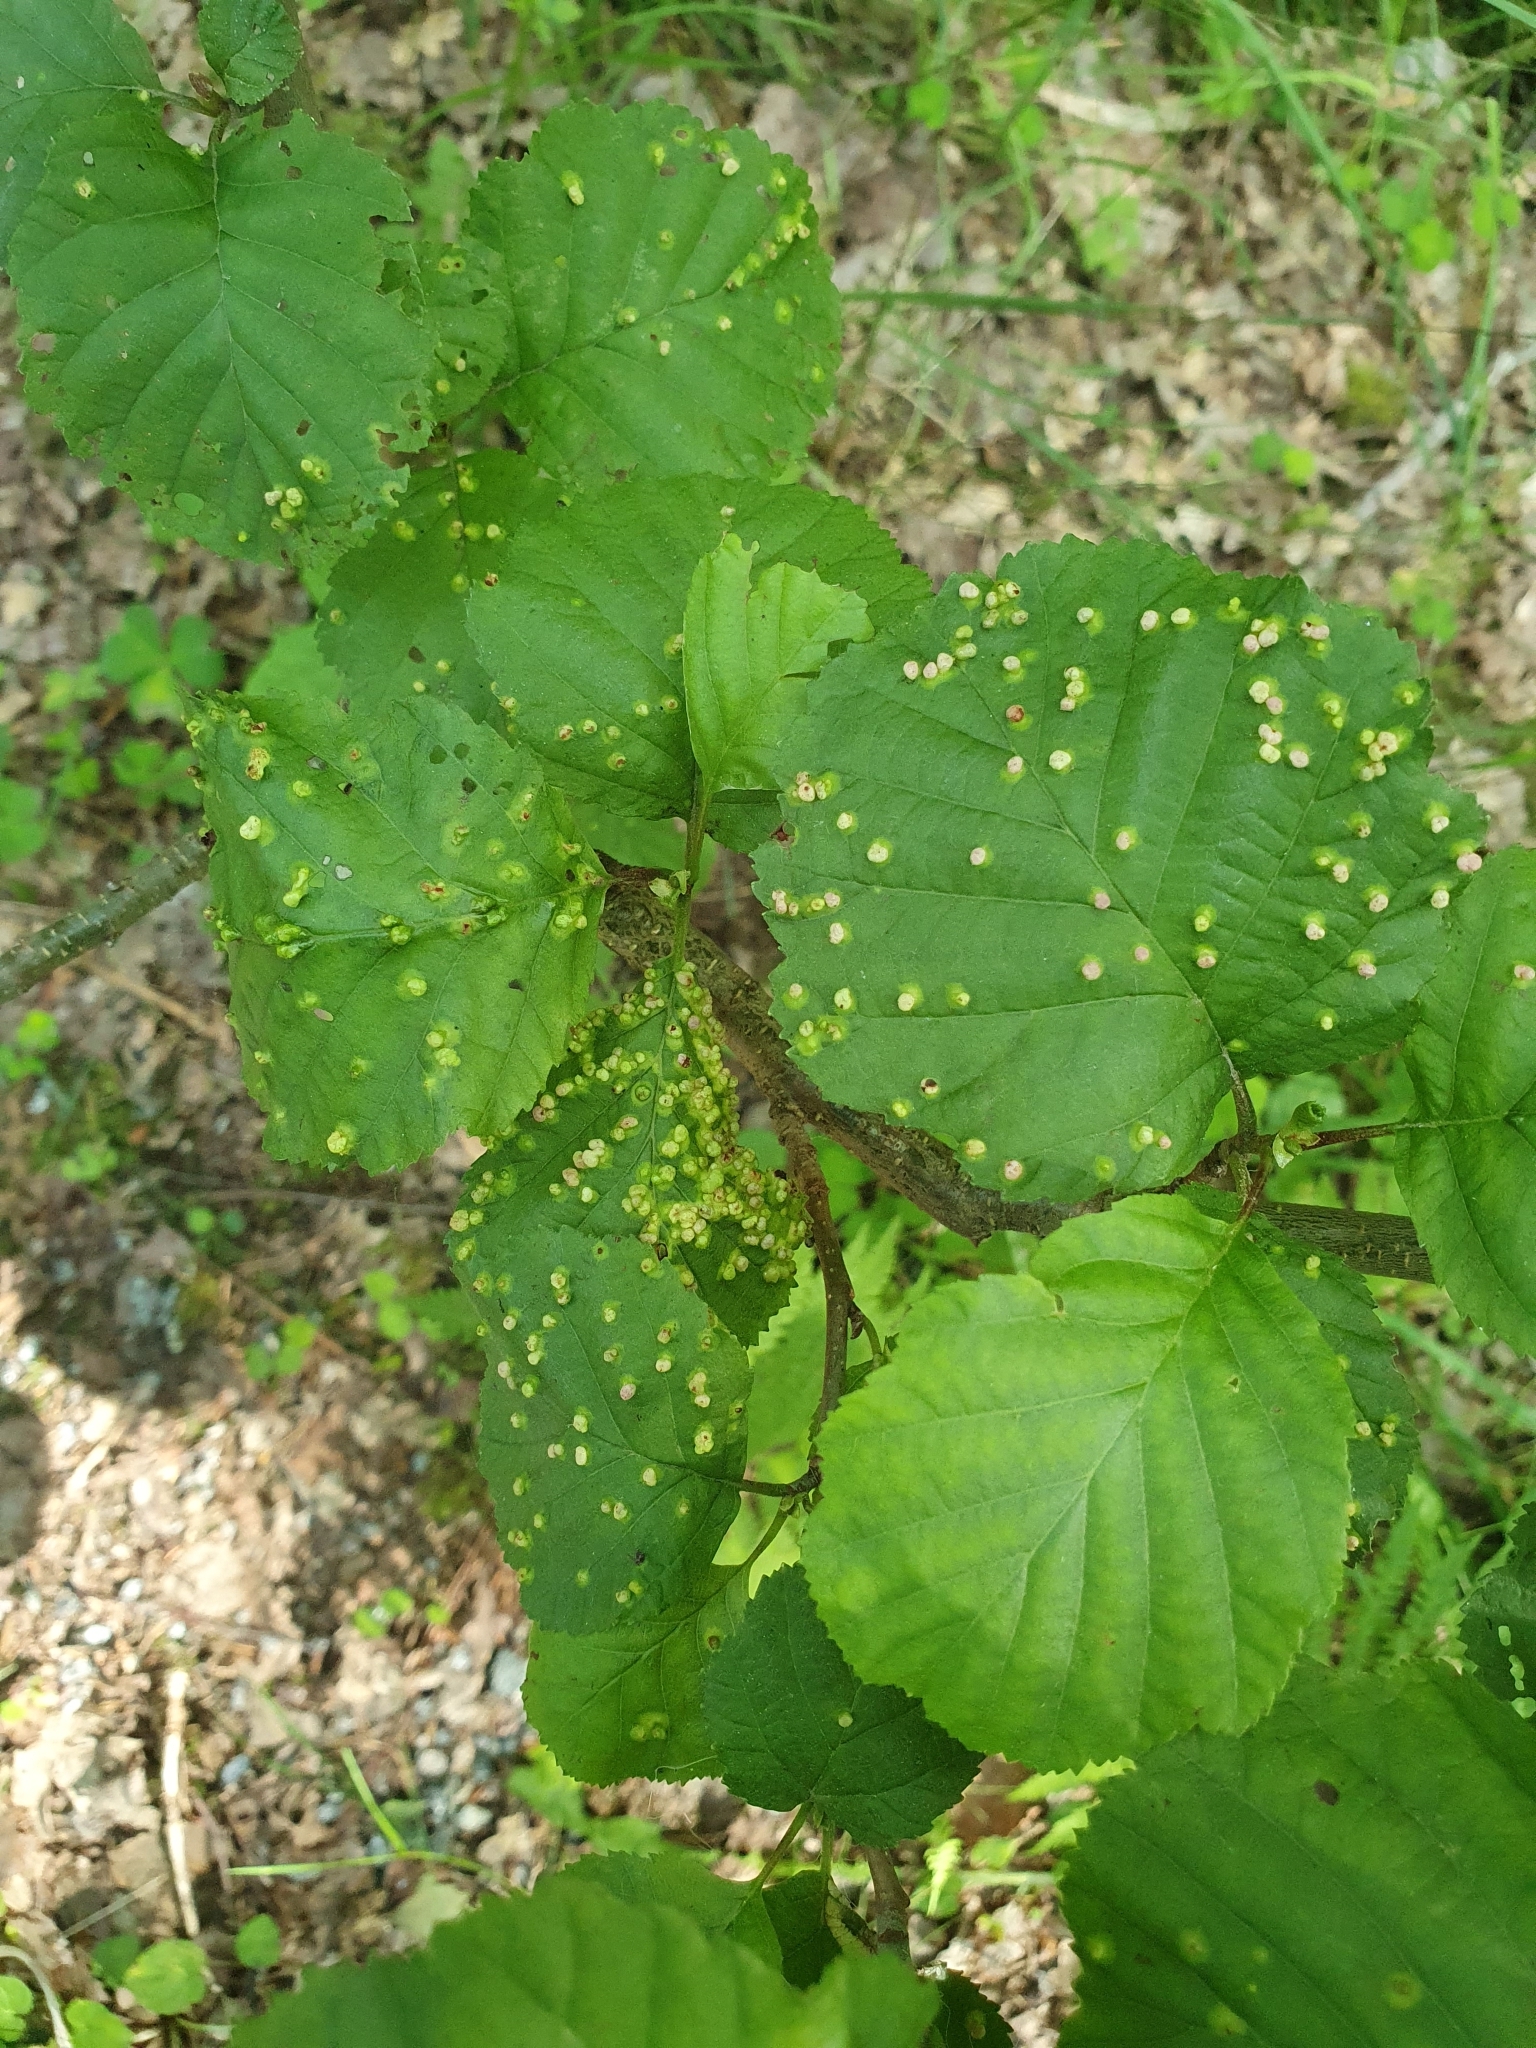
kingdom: Animalia
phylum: Arthropoda
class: Arachnida
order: Trombidiformes
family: Eriophyidae
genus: Eriophyes
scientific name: Eriophyes laevis
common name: Alder leaf gall mite
